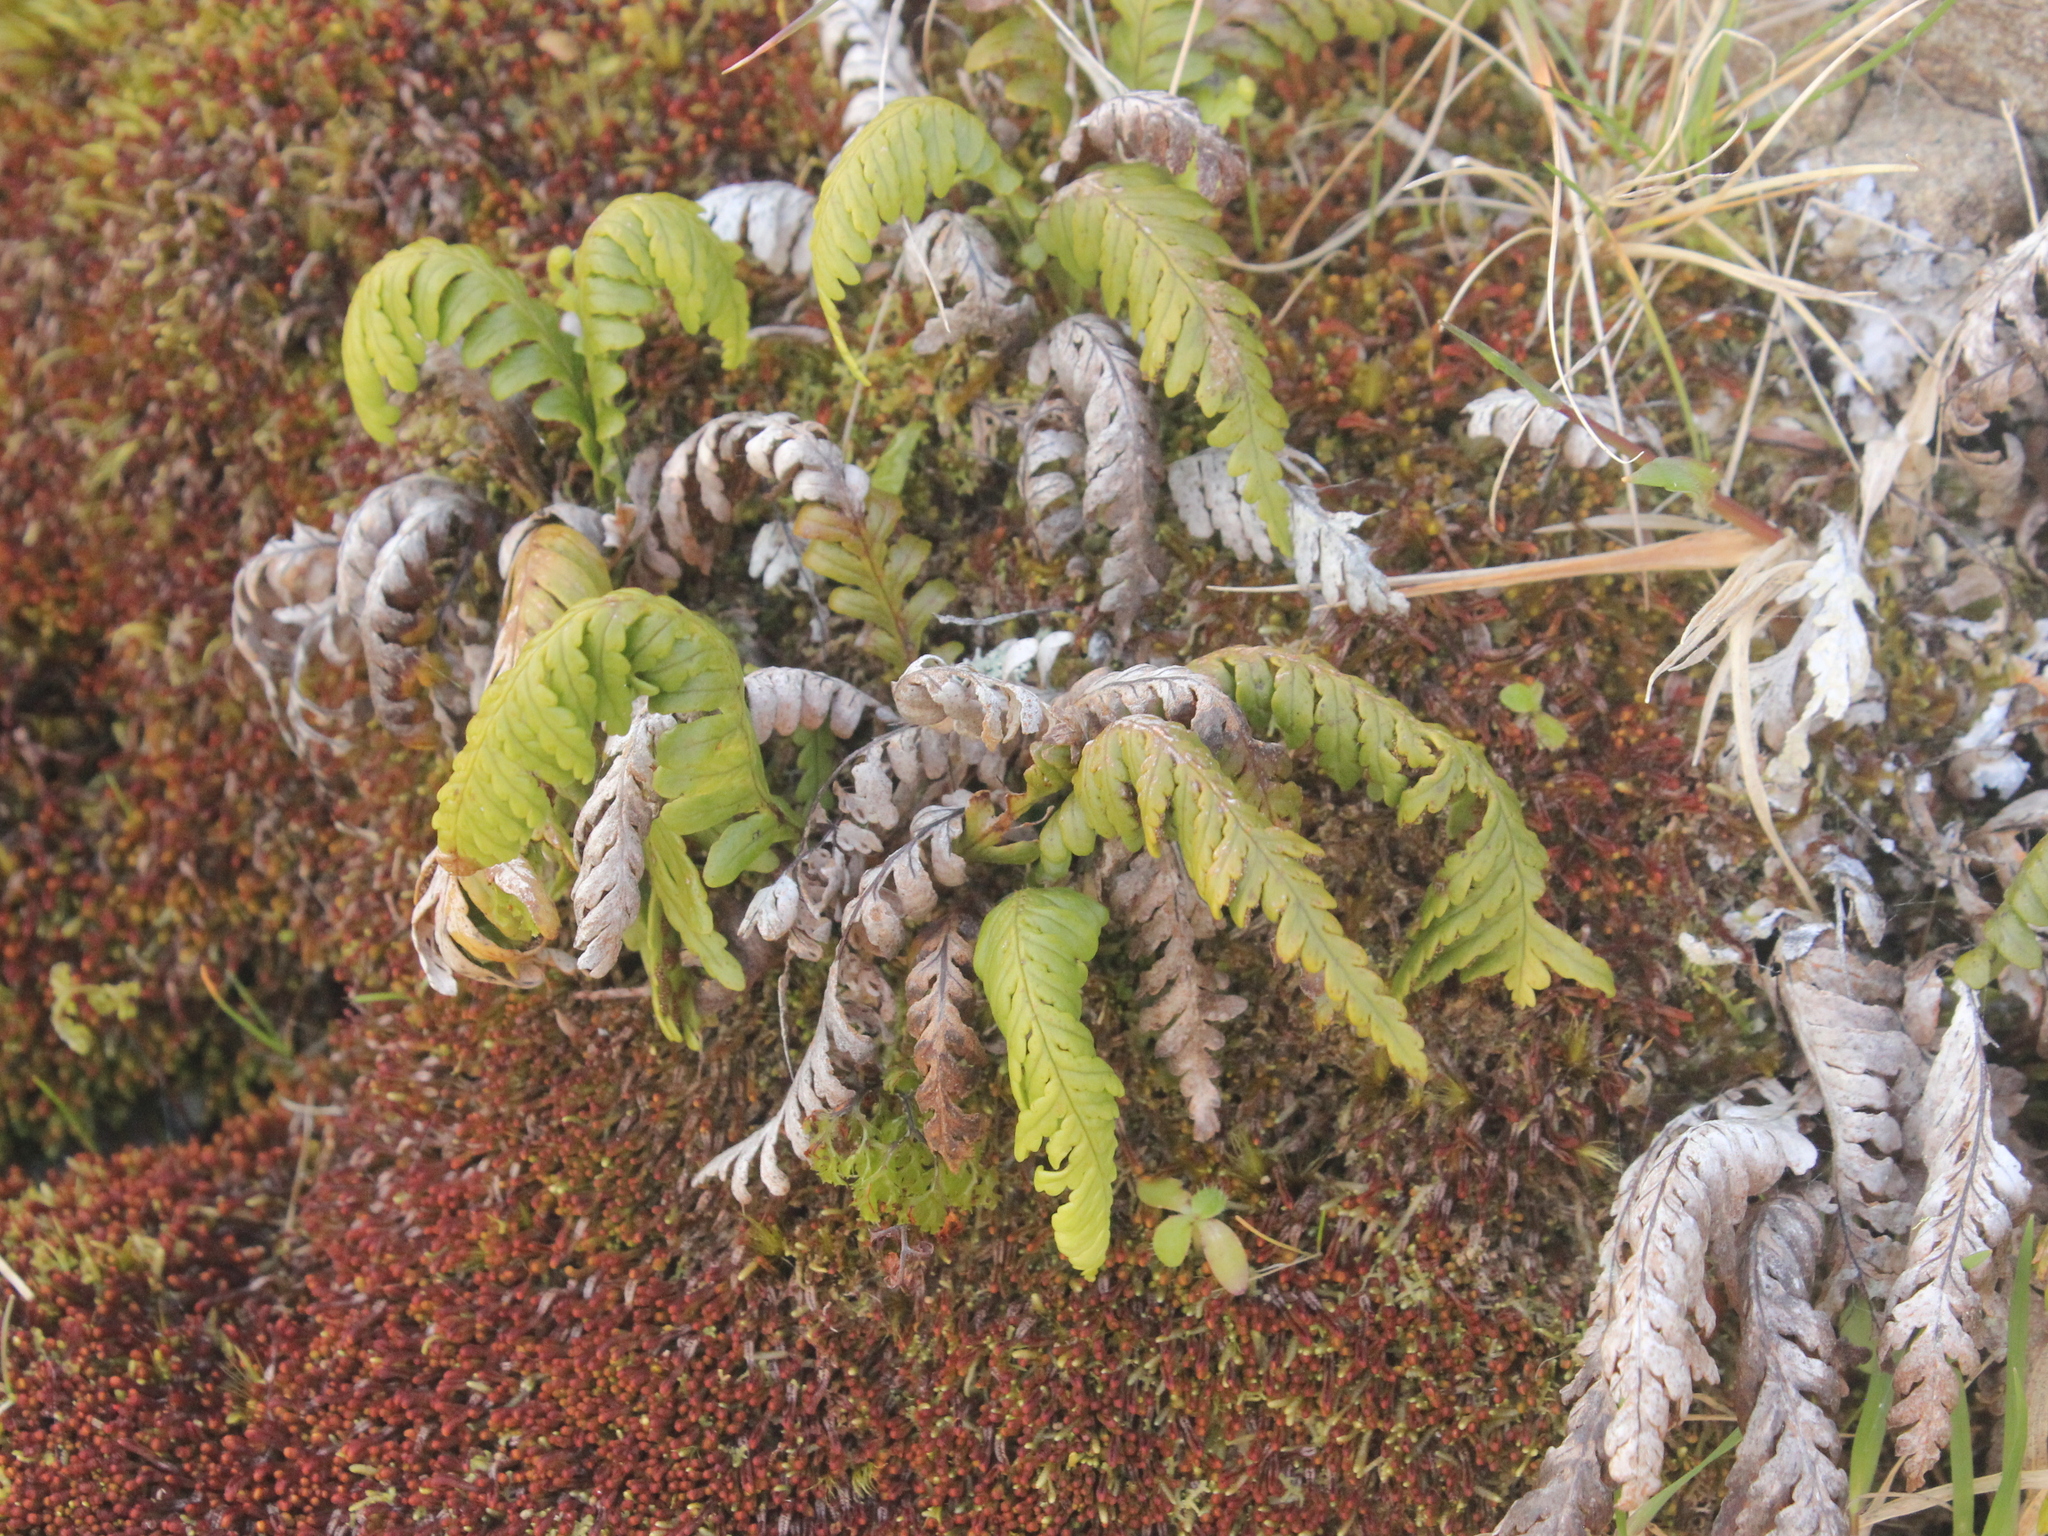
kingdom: Plantae
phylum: Tracheophyta
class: Polypodiopsida
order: Polypodiales
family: Polypodiaceae
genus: Notogrammitis
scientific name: Notogrammitis heterophylla
